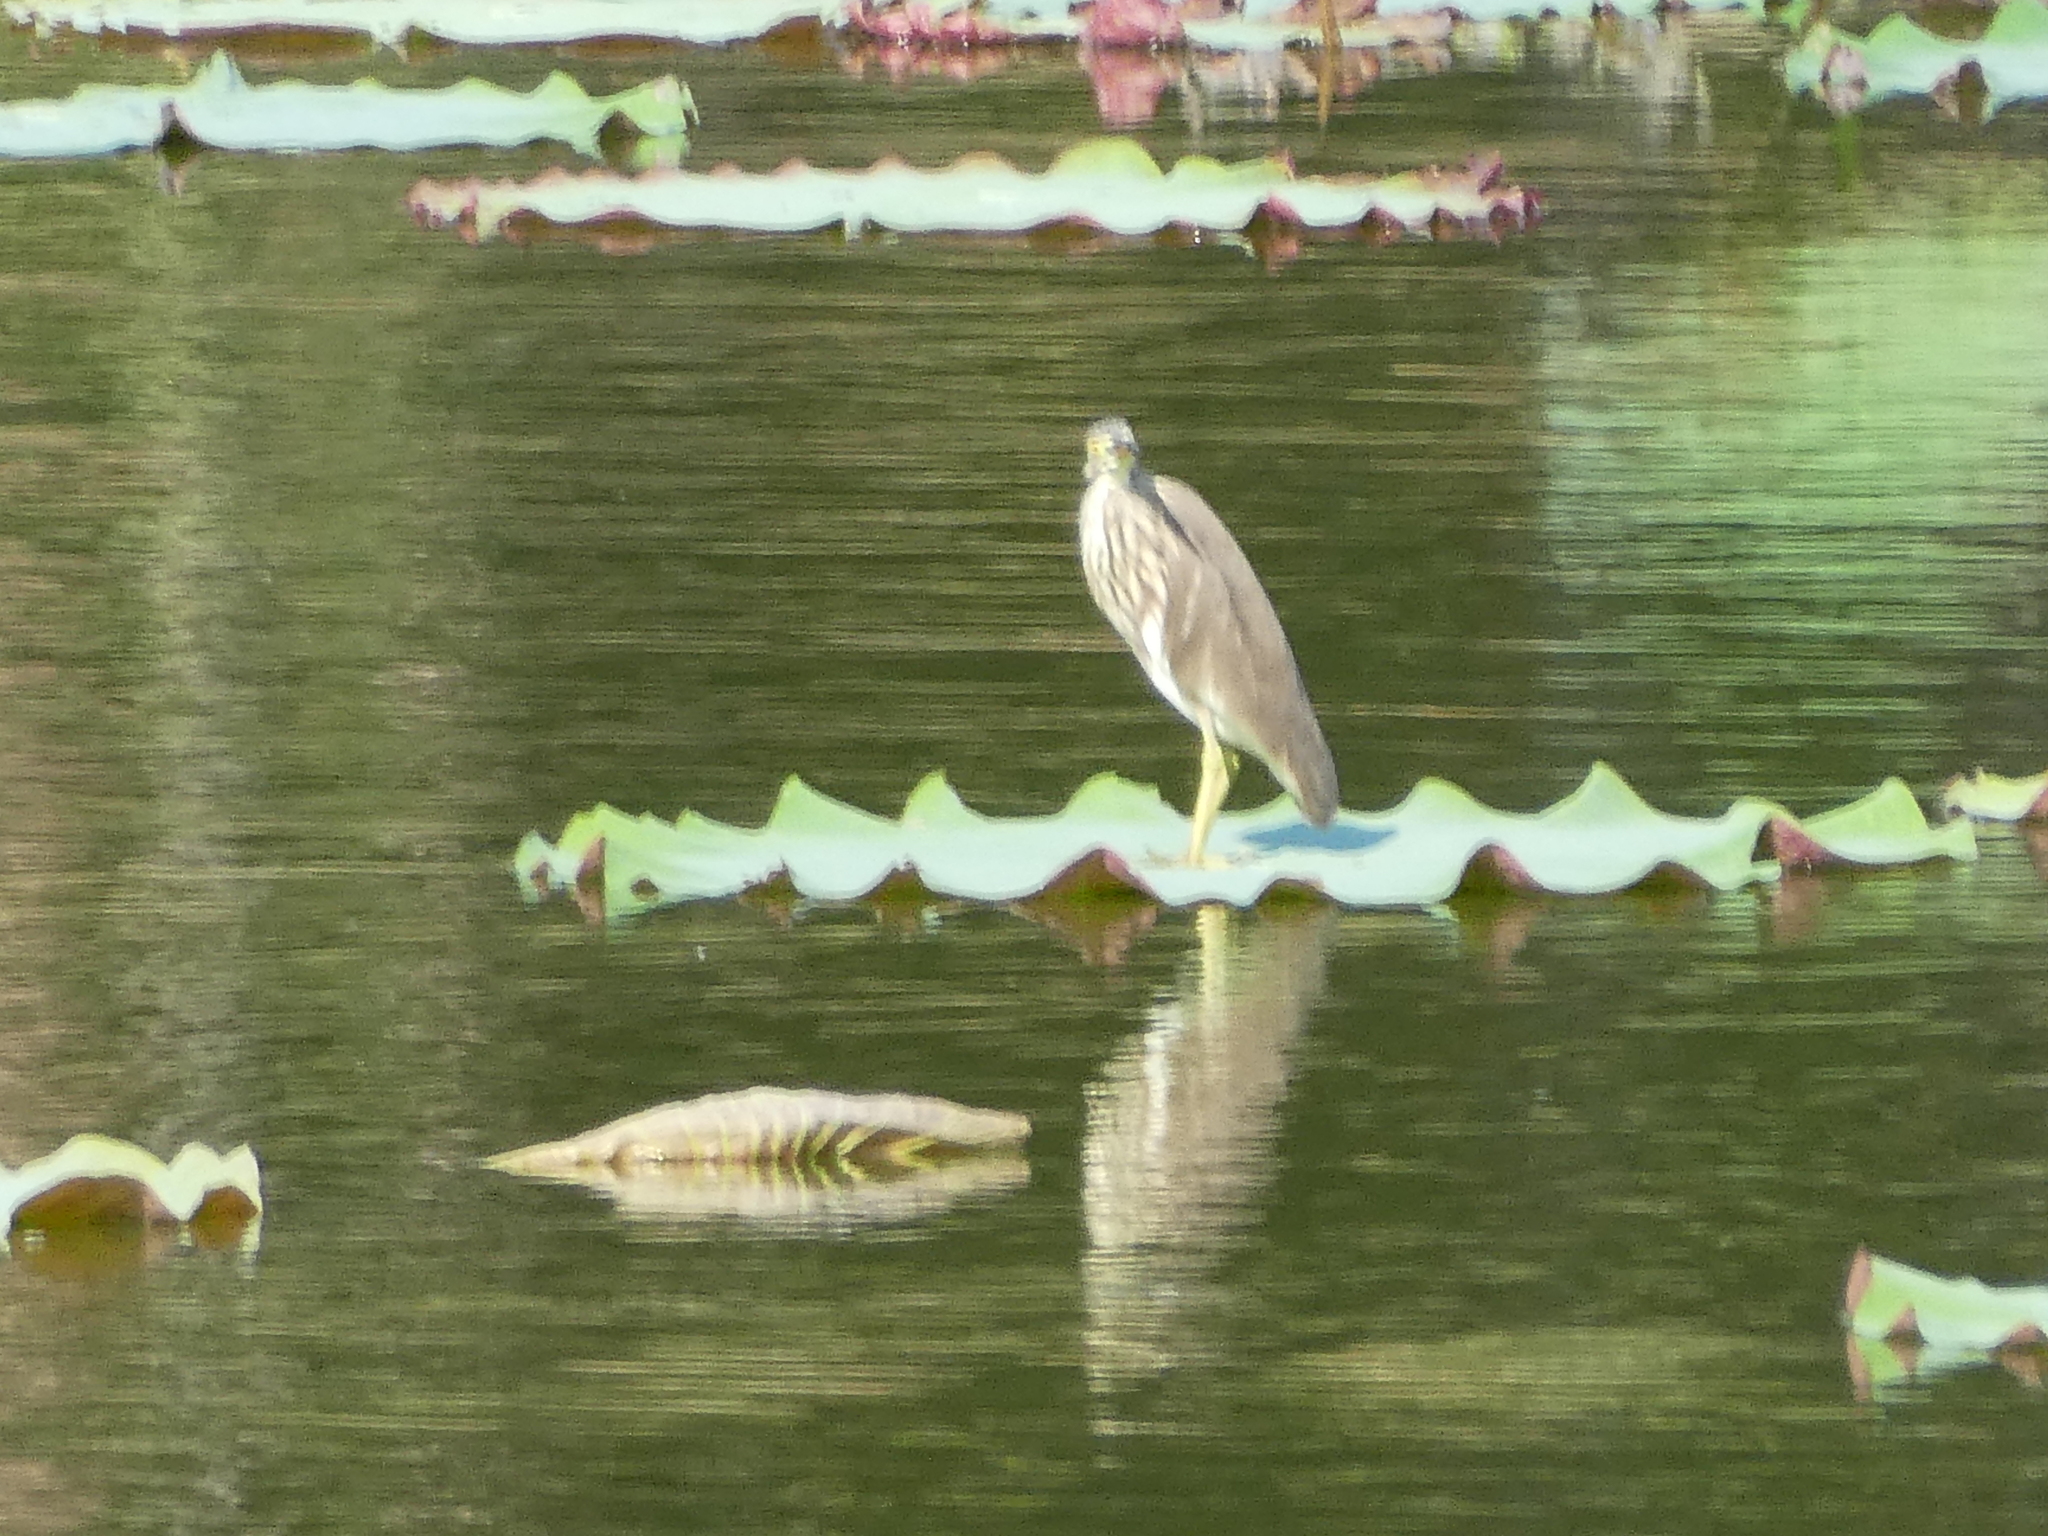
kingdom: Animalia
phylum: Chordata
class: Aves
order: Pelecaniformes
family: Ardeidae
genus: Ardeola
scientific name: Ardeola
